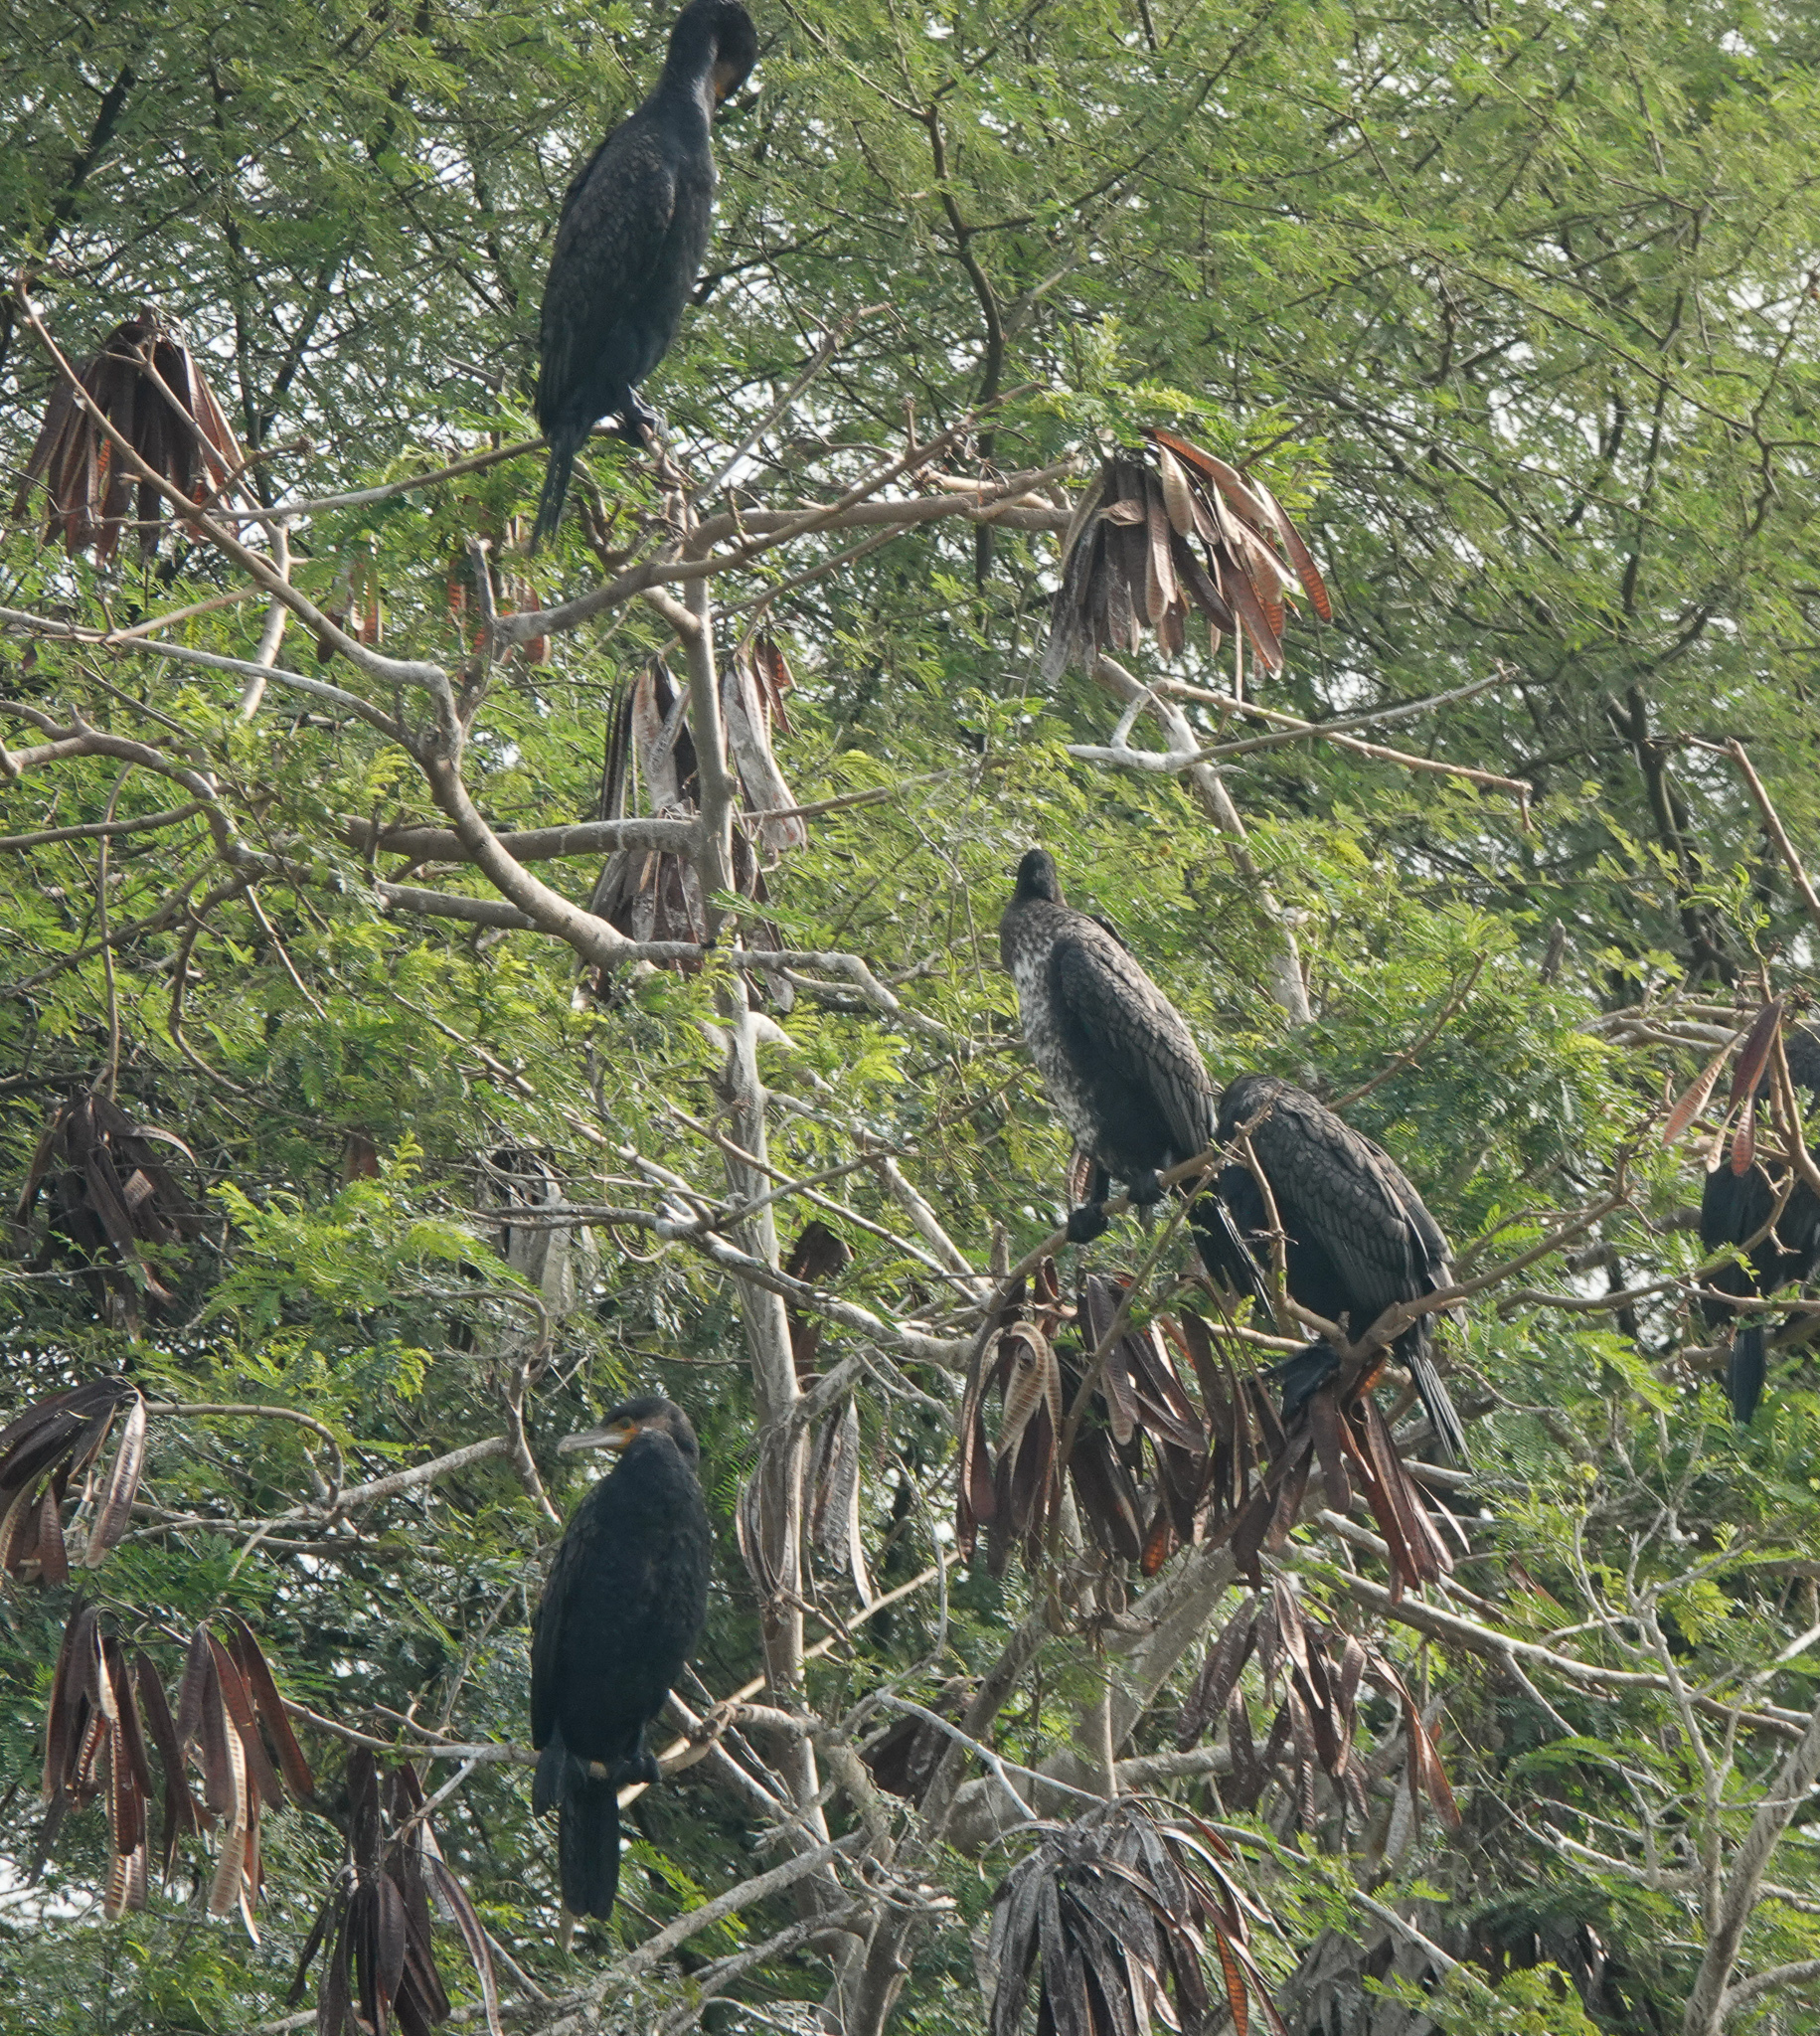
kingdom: Animalia
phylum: Chordata
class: Aves
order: Suliformes
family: Phalacrocoracidae
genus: Phalacrocorax
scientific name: Phalacrocorax carbo
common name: Great cormorant
